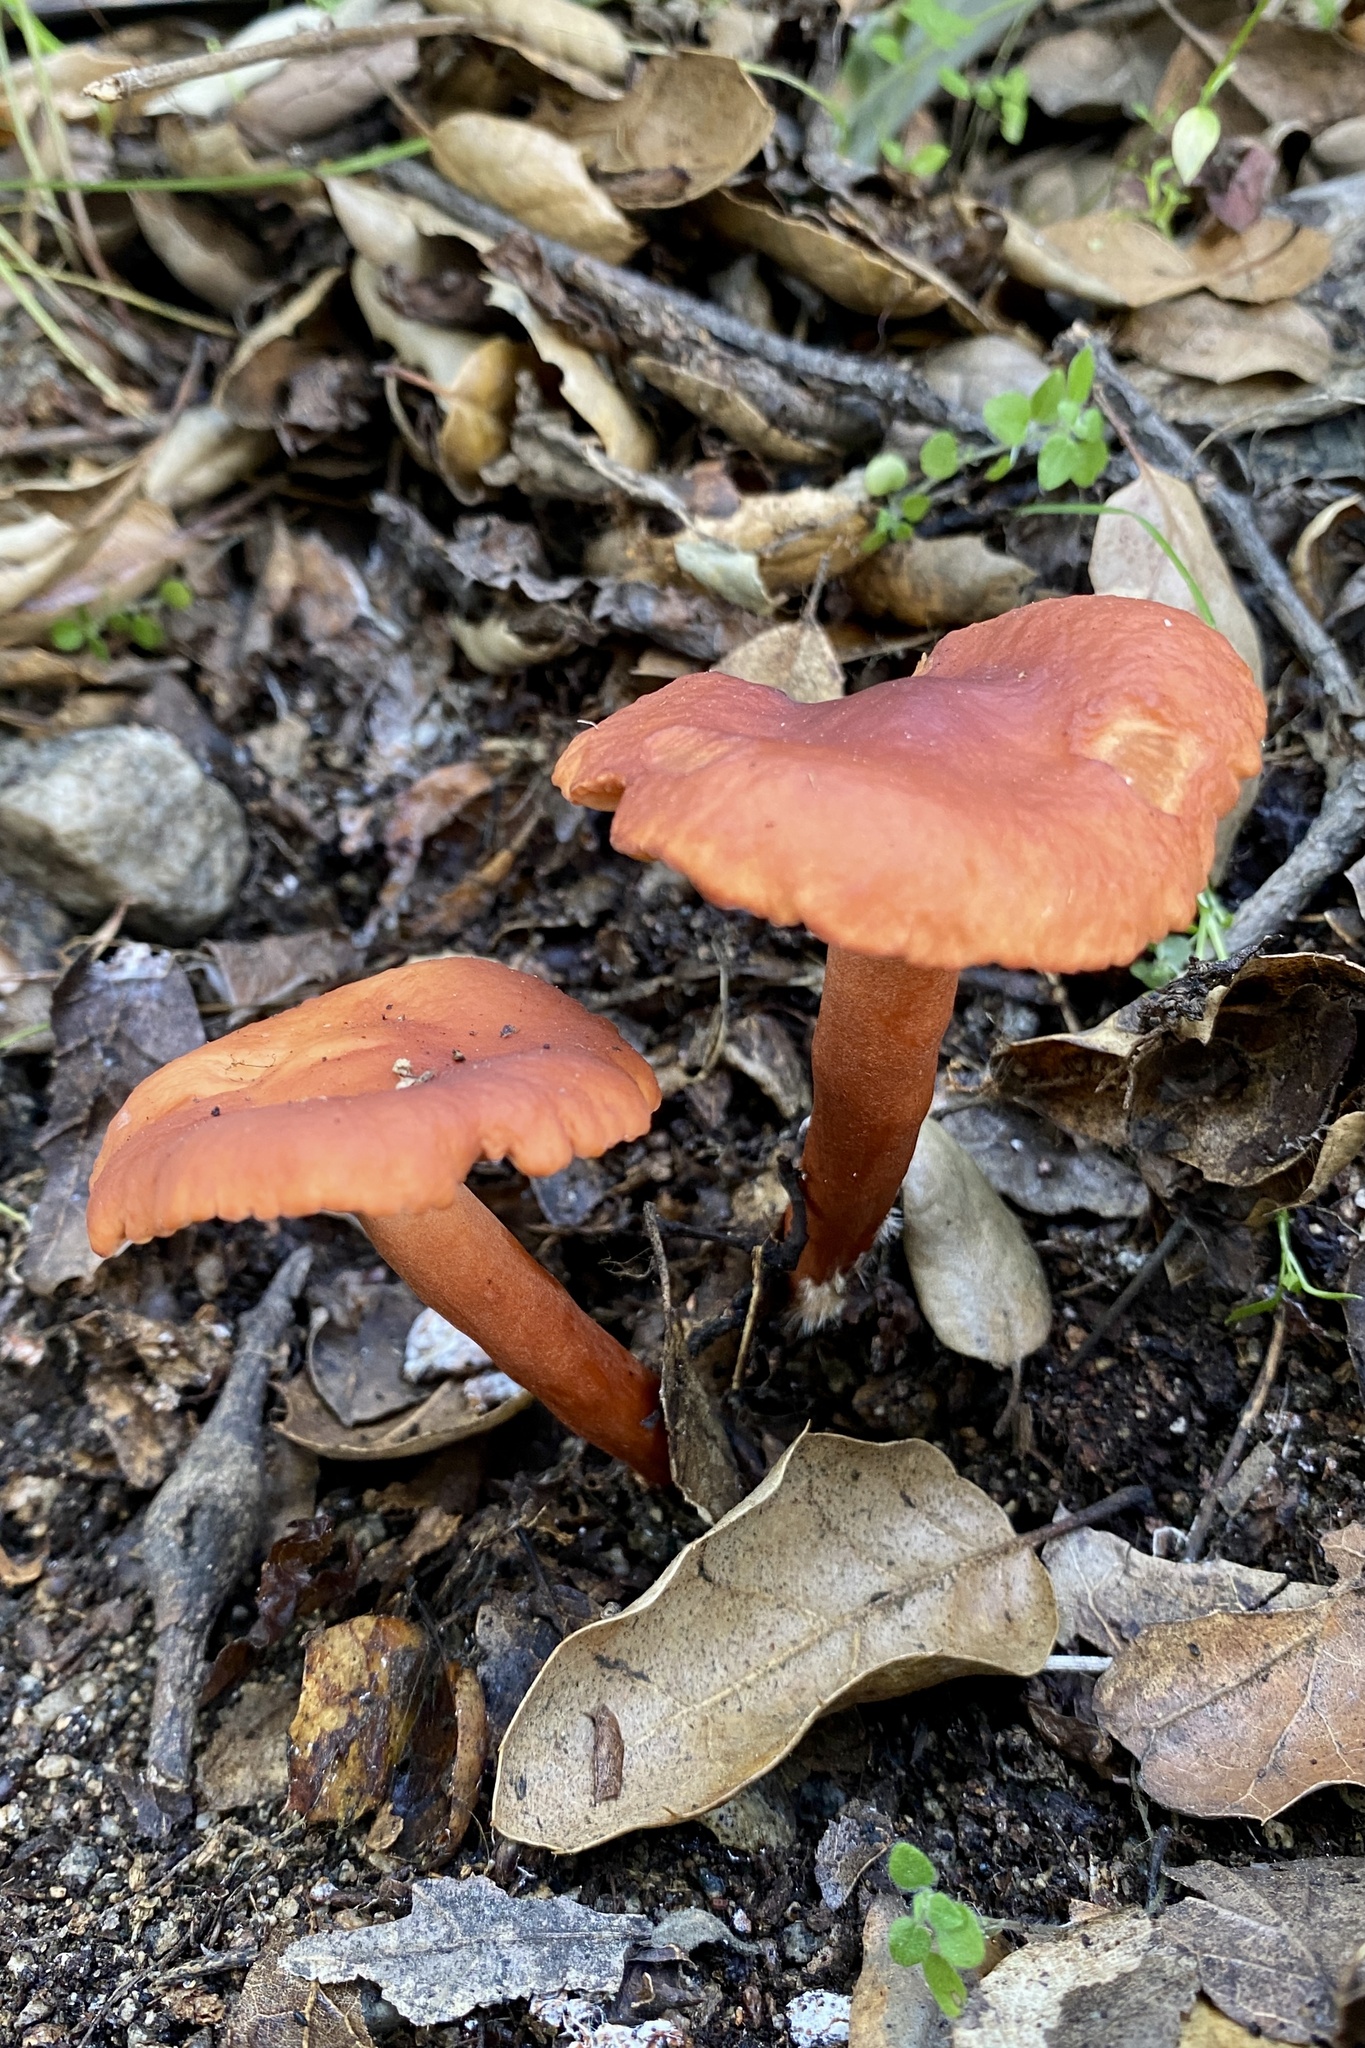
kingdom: Fungi
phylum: Basidiomycota
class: Agaricomycetes
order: Russulales
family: Russulaceae
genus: Lactarius
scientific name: Lactarius rufulus
